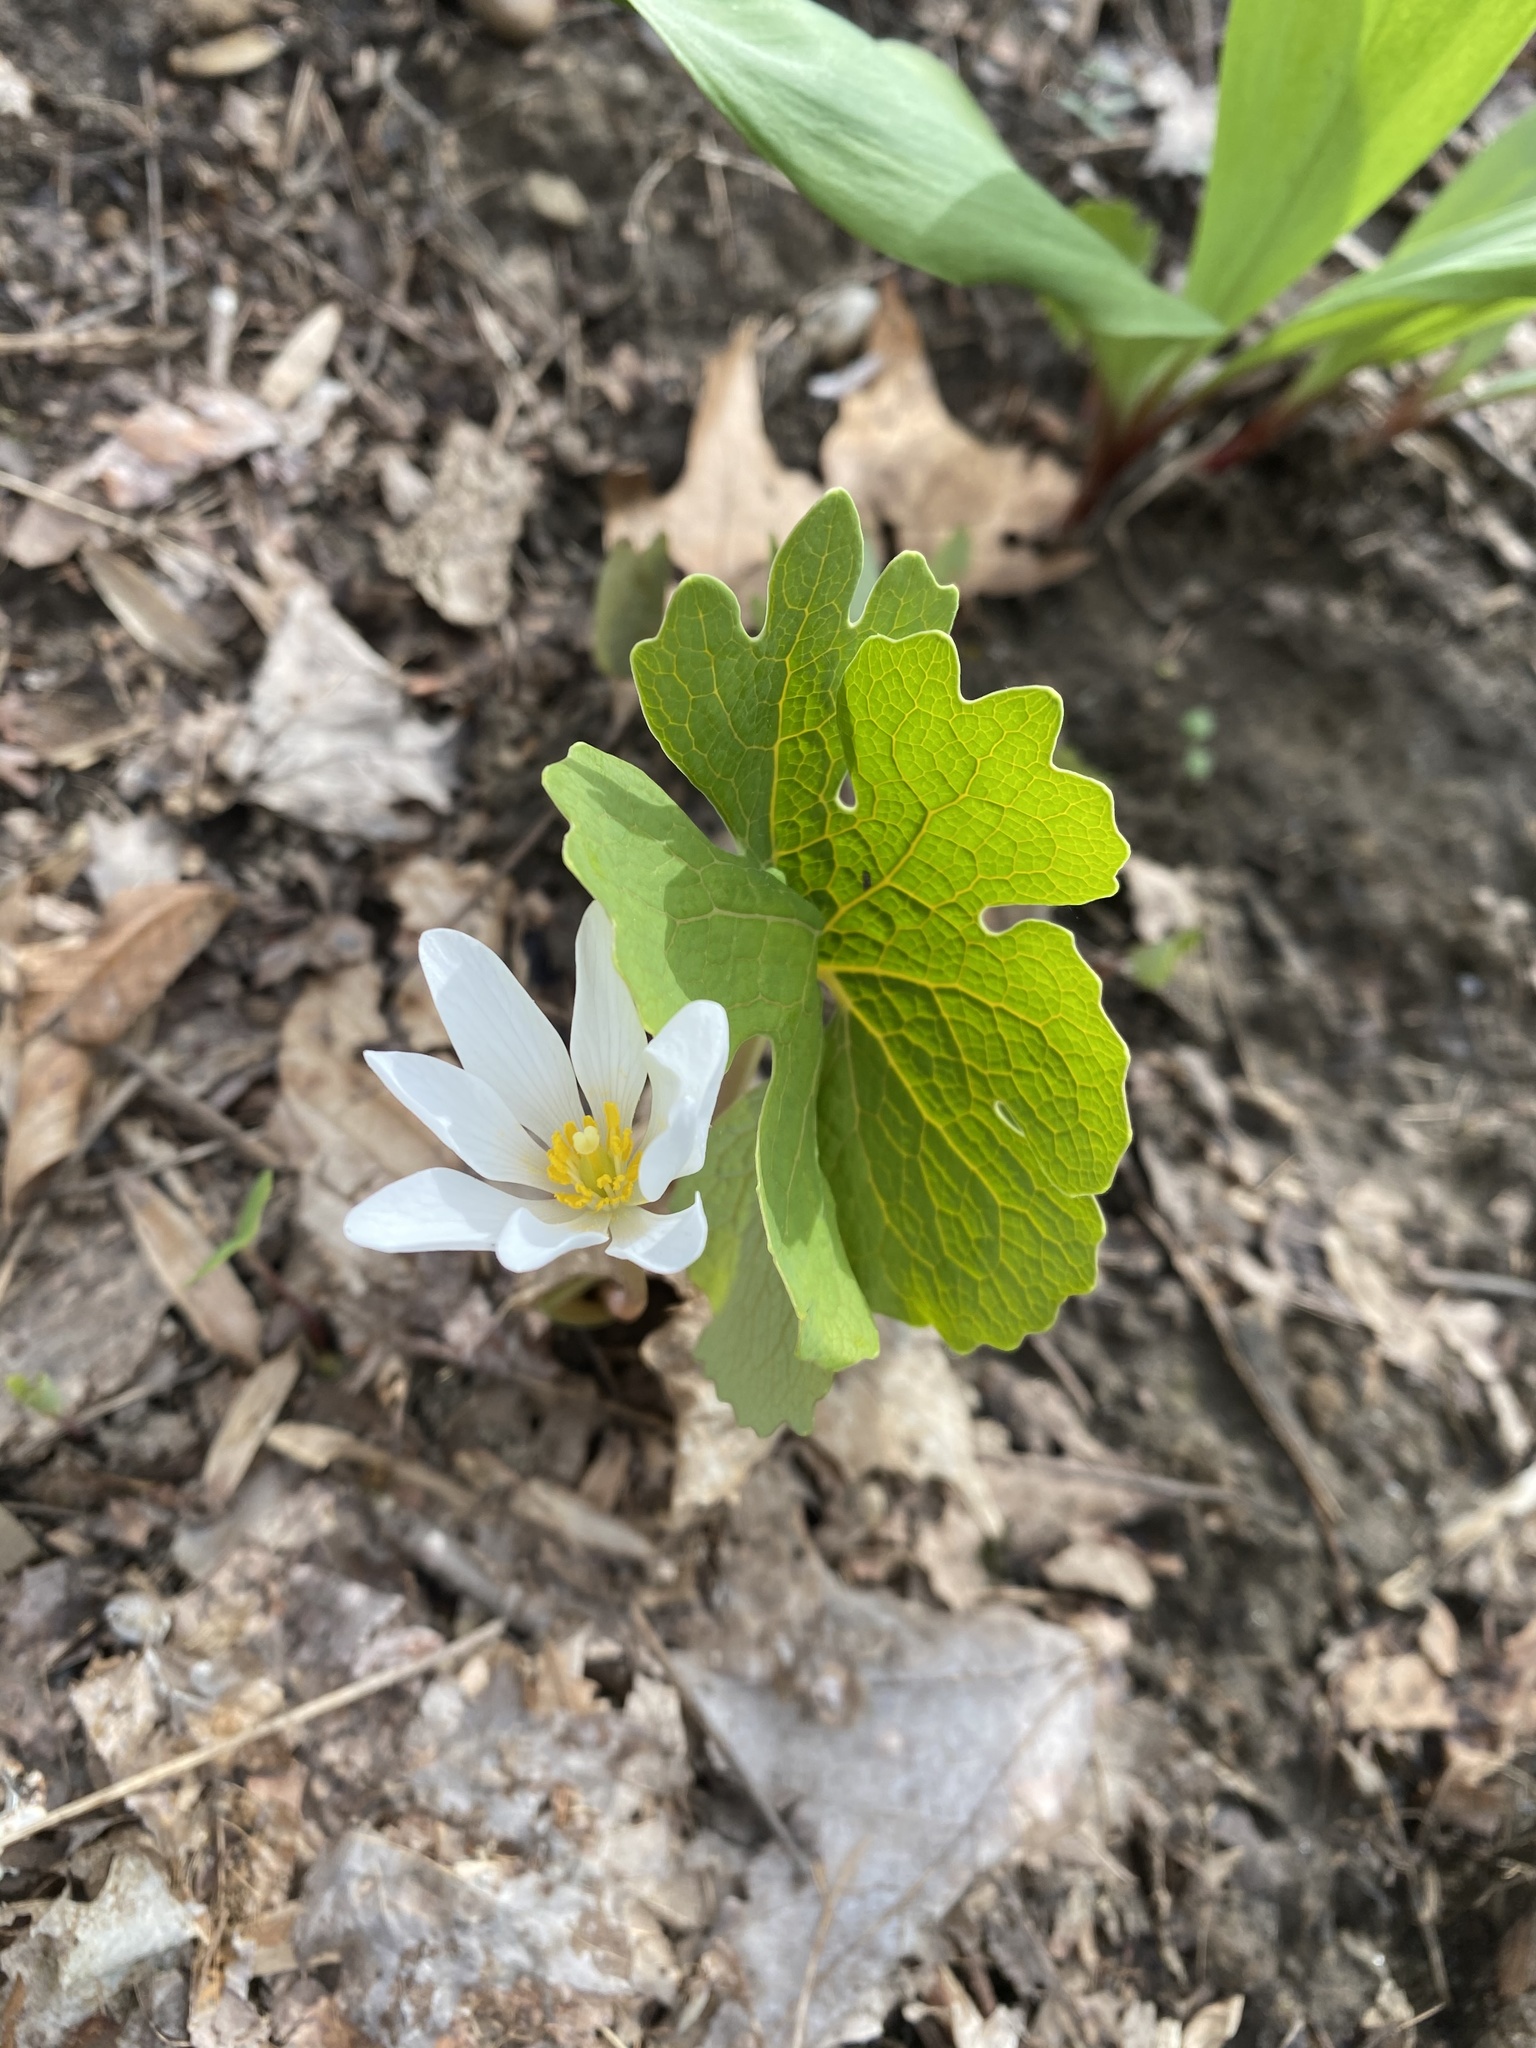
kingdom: Plantae
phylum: Tracheophyta
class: Magnoliopsida
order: Ranunculales
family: Papaveraceae
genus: Sanguinaria
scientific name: Sanguinaria canadensis
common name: Bloodroot
